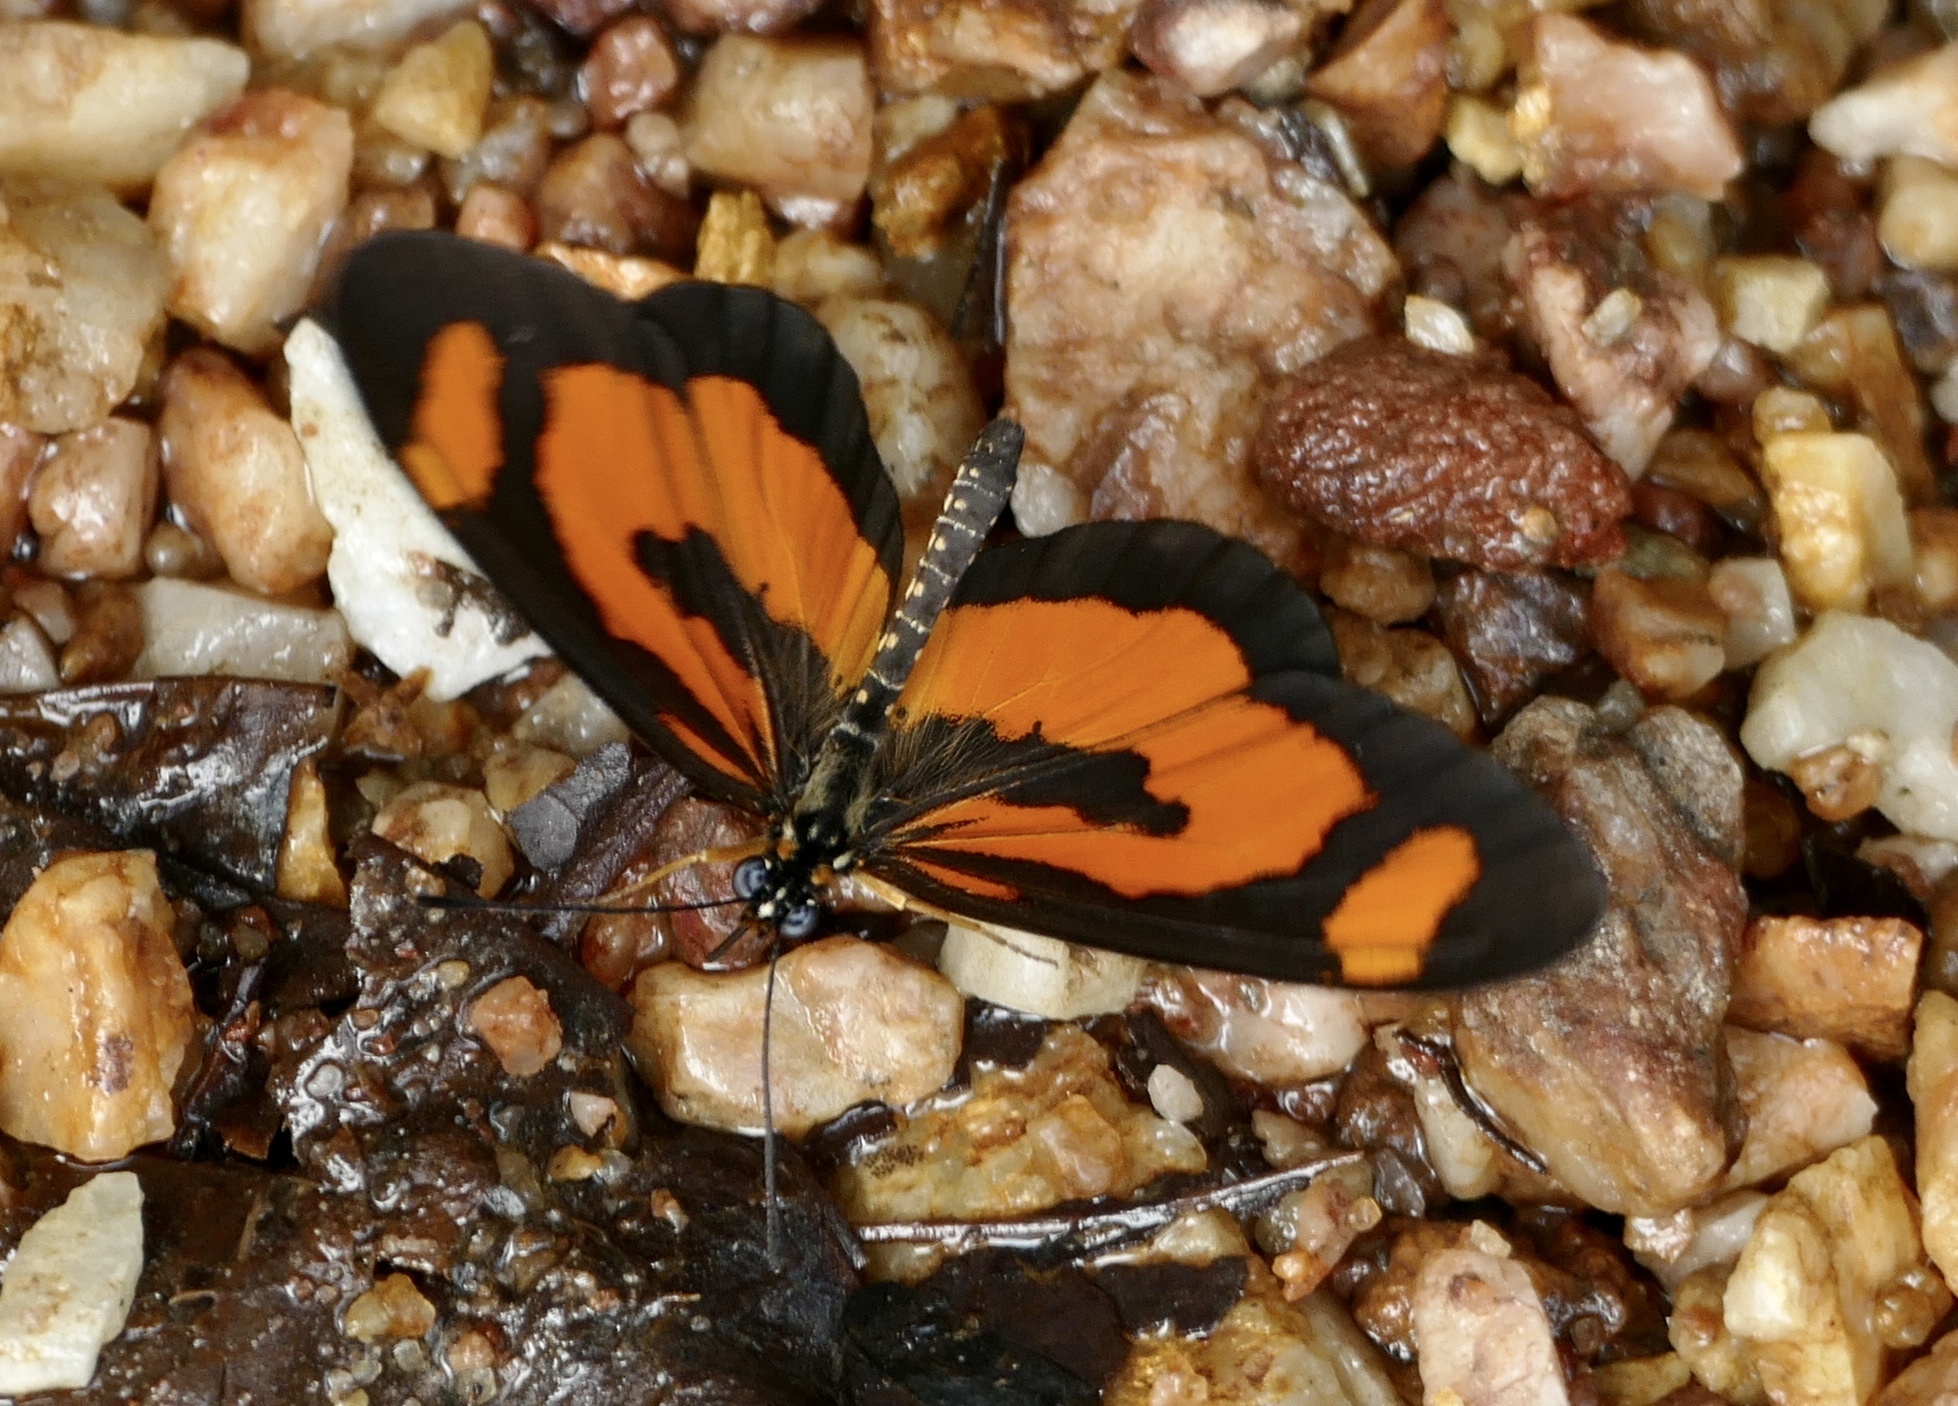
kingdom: Animalia
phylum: Arthropoda
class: Insecta
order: Lepidoptera
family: Nymphalidae
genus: Acraea
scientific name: Acraea Telchinia bonasia
